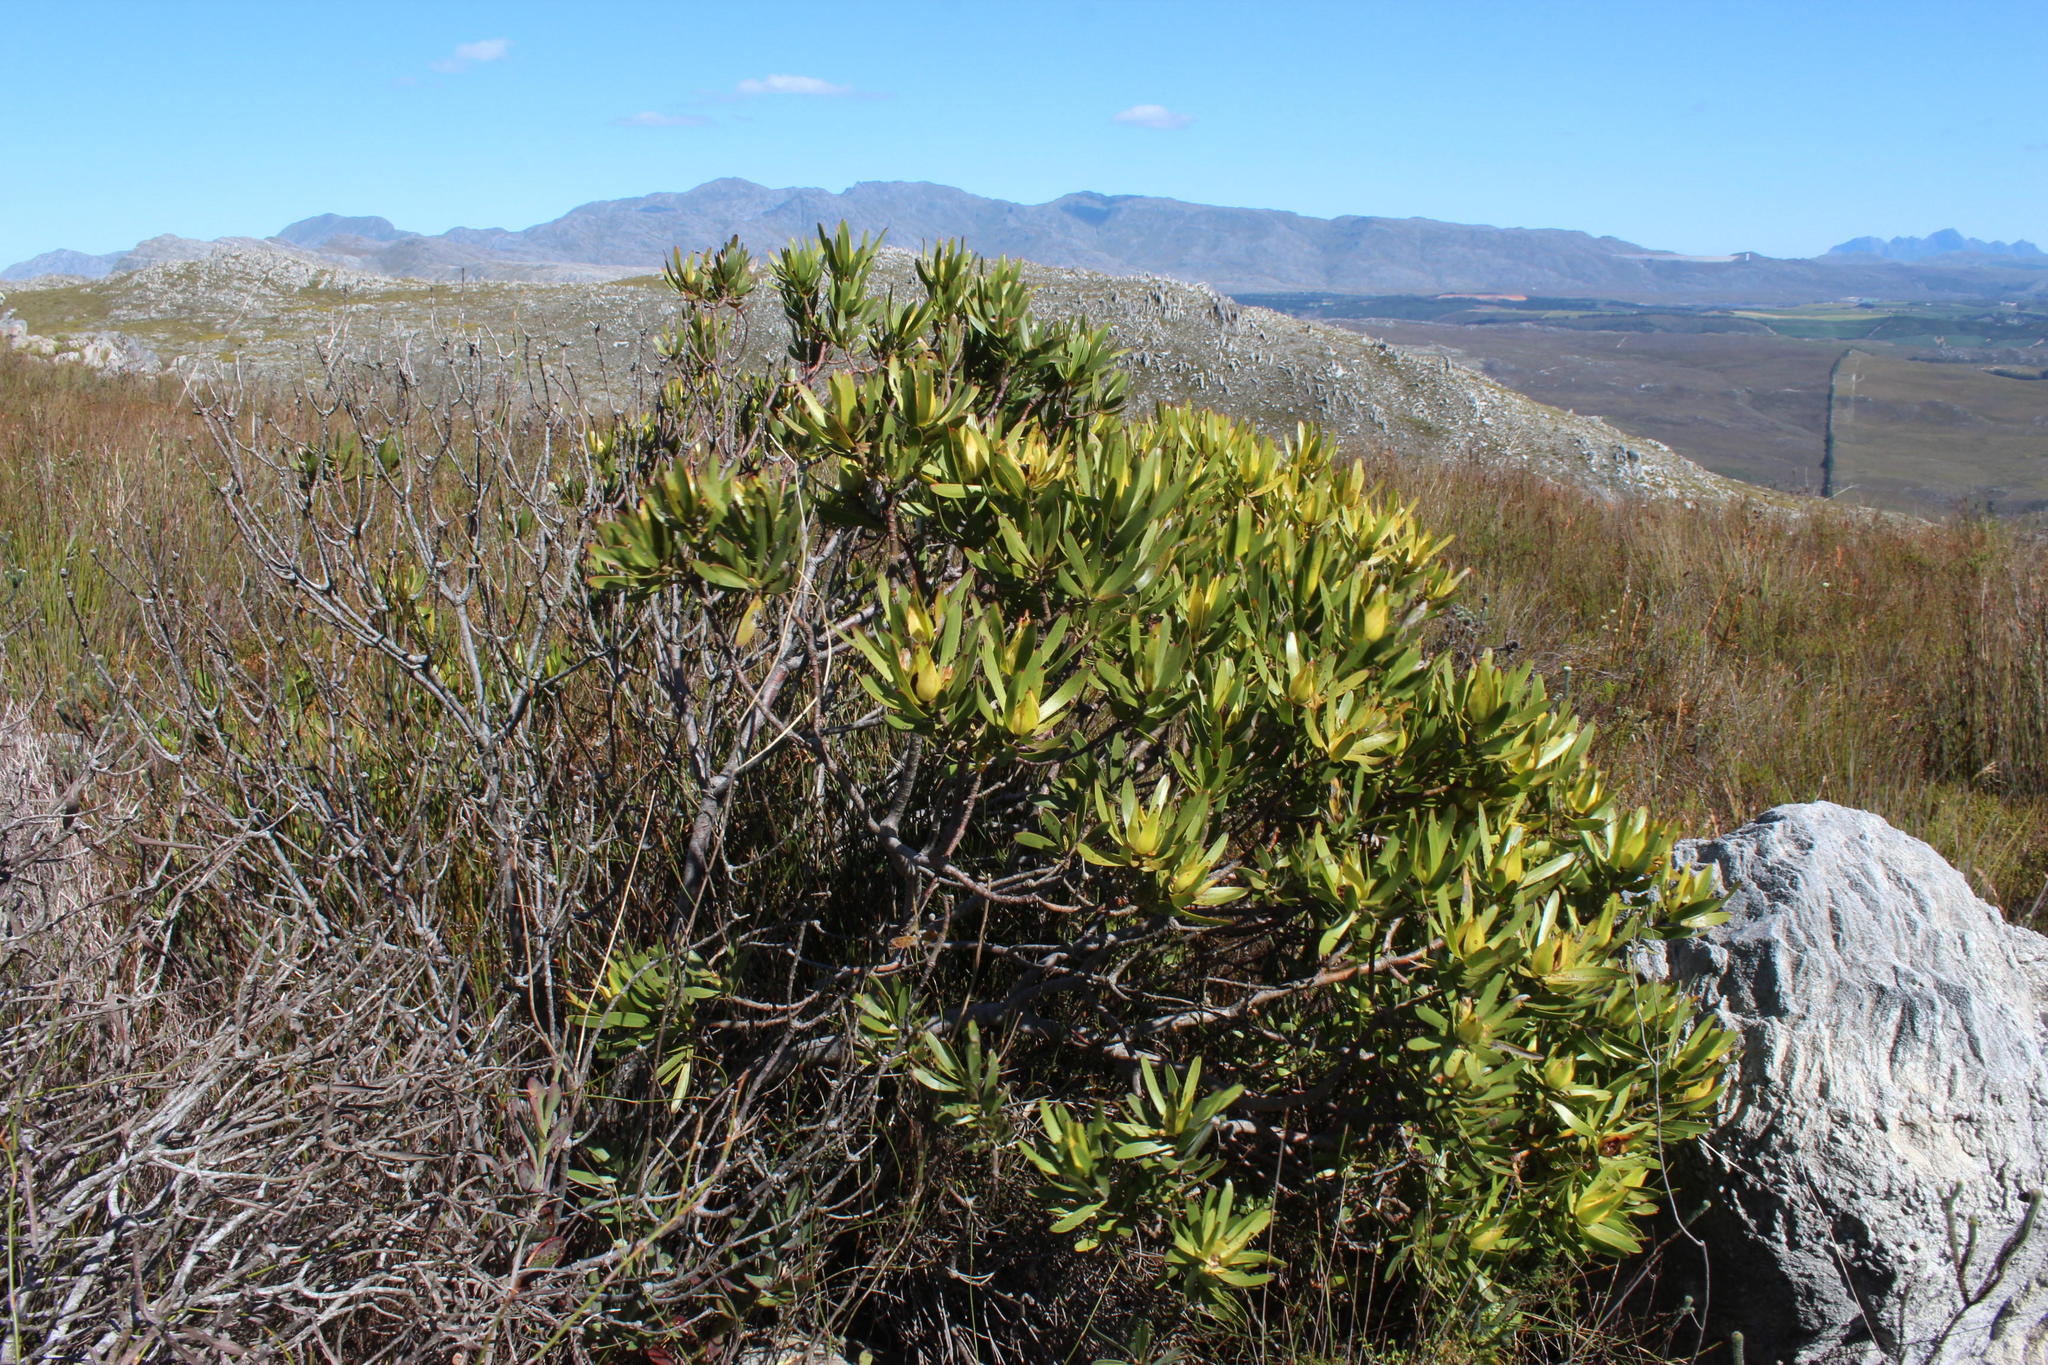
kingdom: Plantae
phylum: Tracheophyta
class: Magnoliopsida
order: Proteales
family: Proteaceae
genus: Leucadendron
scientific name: Leucadendron laureolum
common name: Golden sunshinebush
